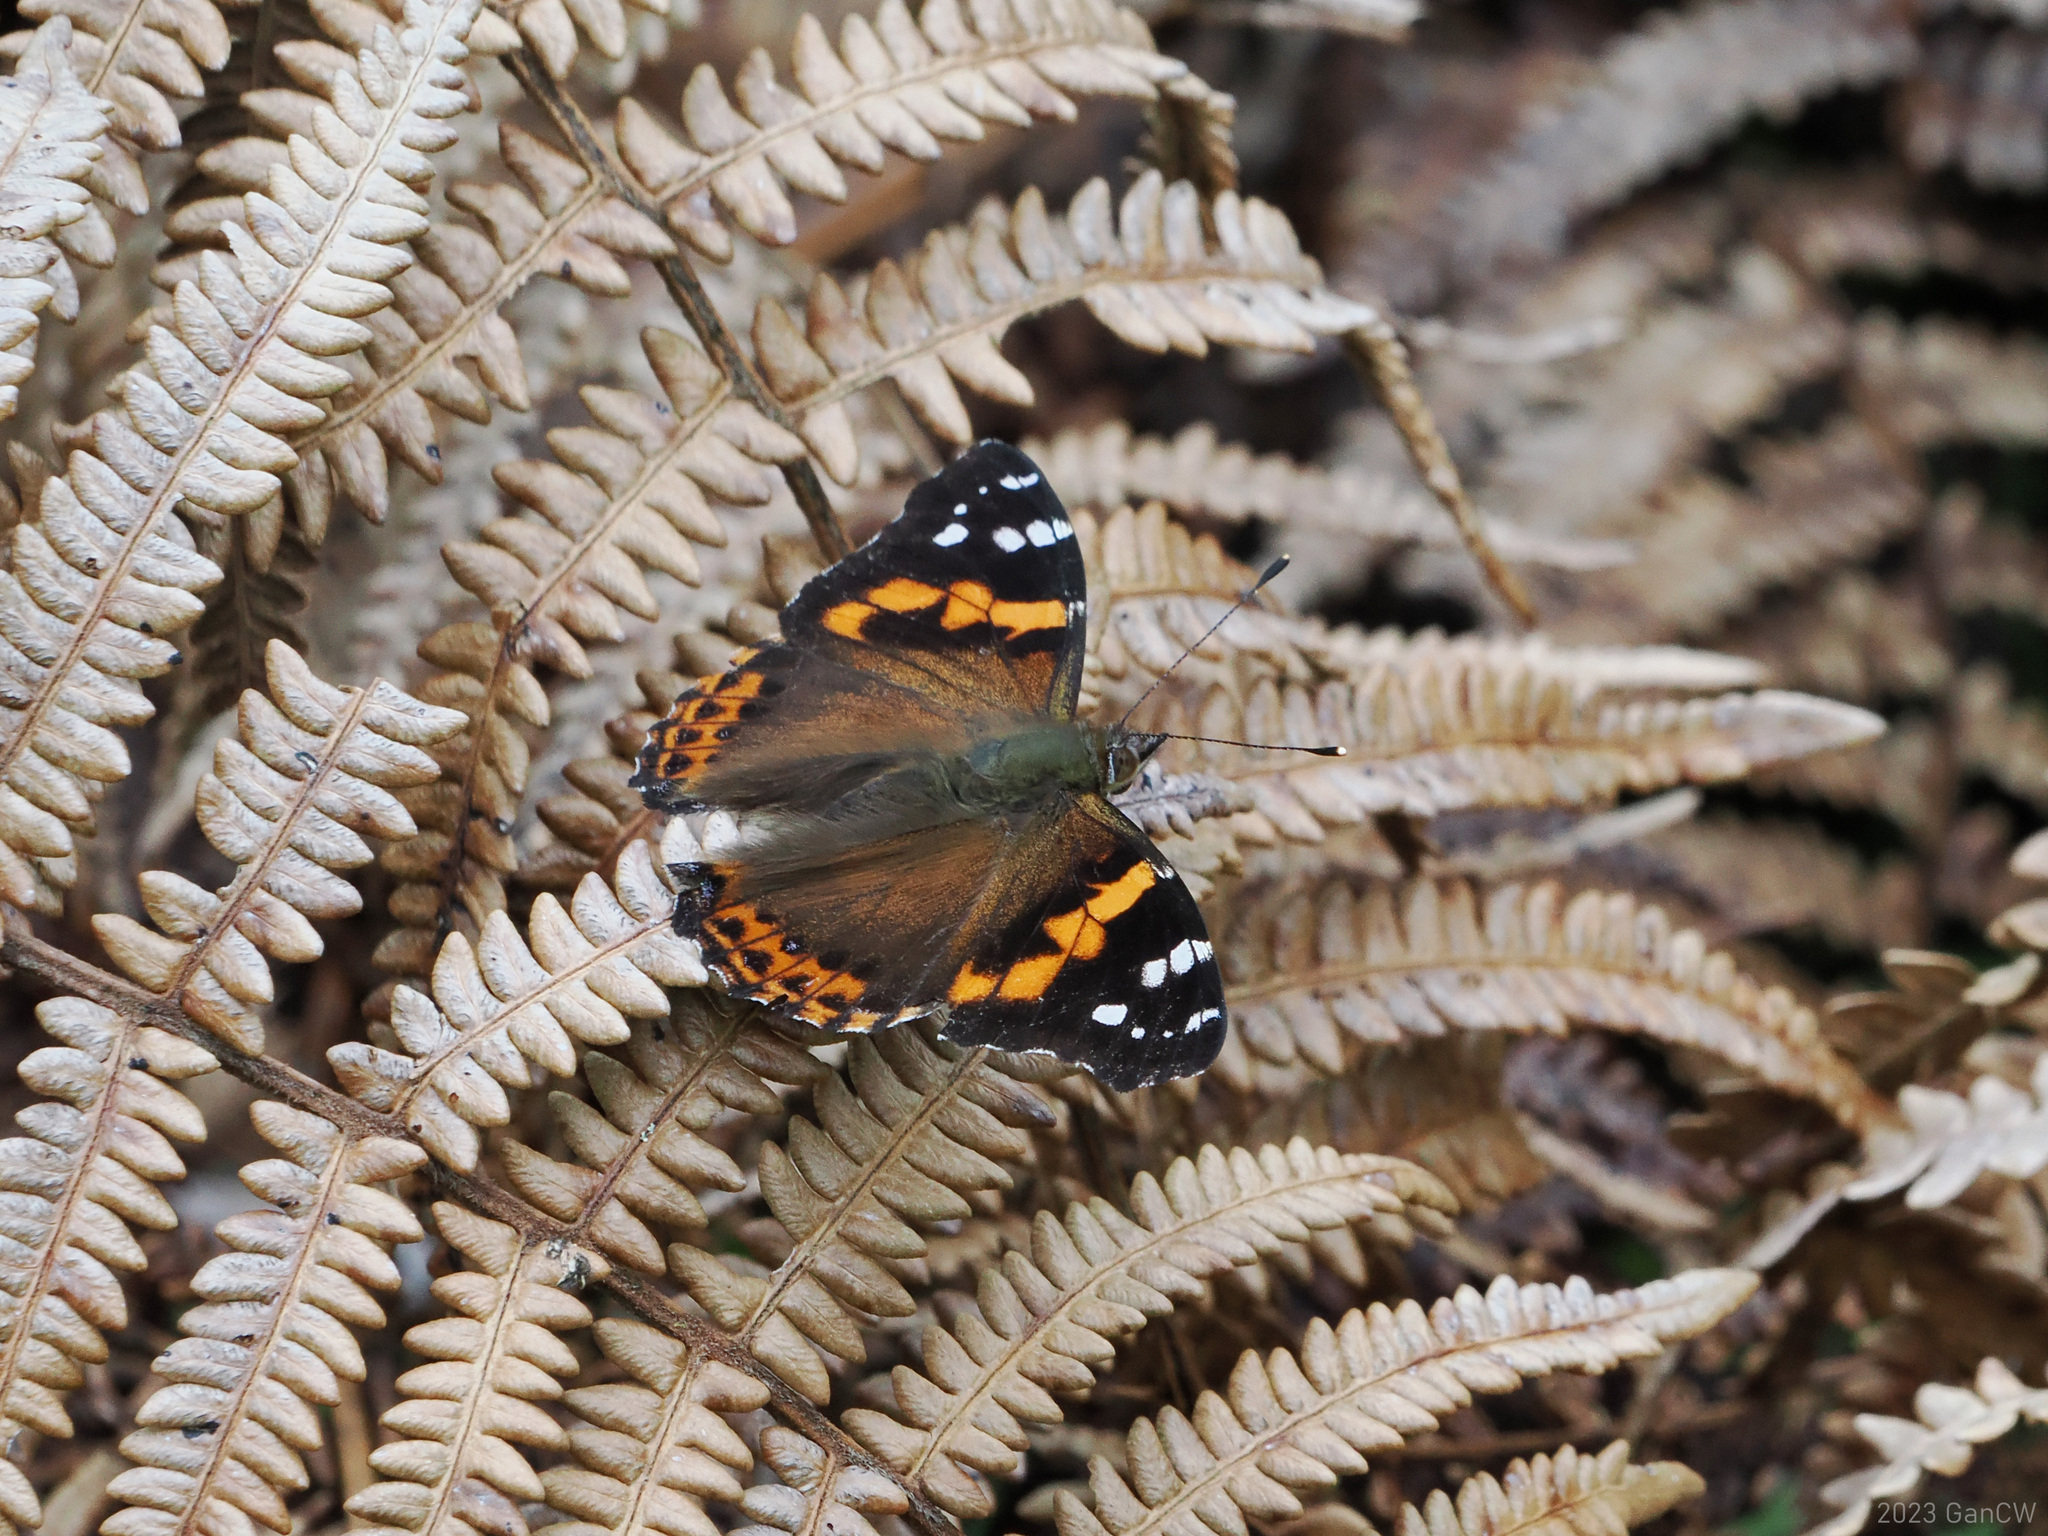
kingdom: Animalia
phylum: Arthropoda
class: Insecta
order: Lepidoptera
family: Nymphalidae
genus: Vanessa
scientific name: Vanessa buana
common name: Lompobatang lady
